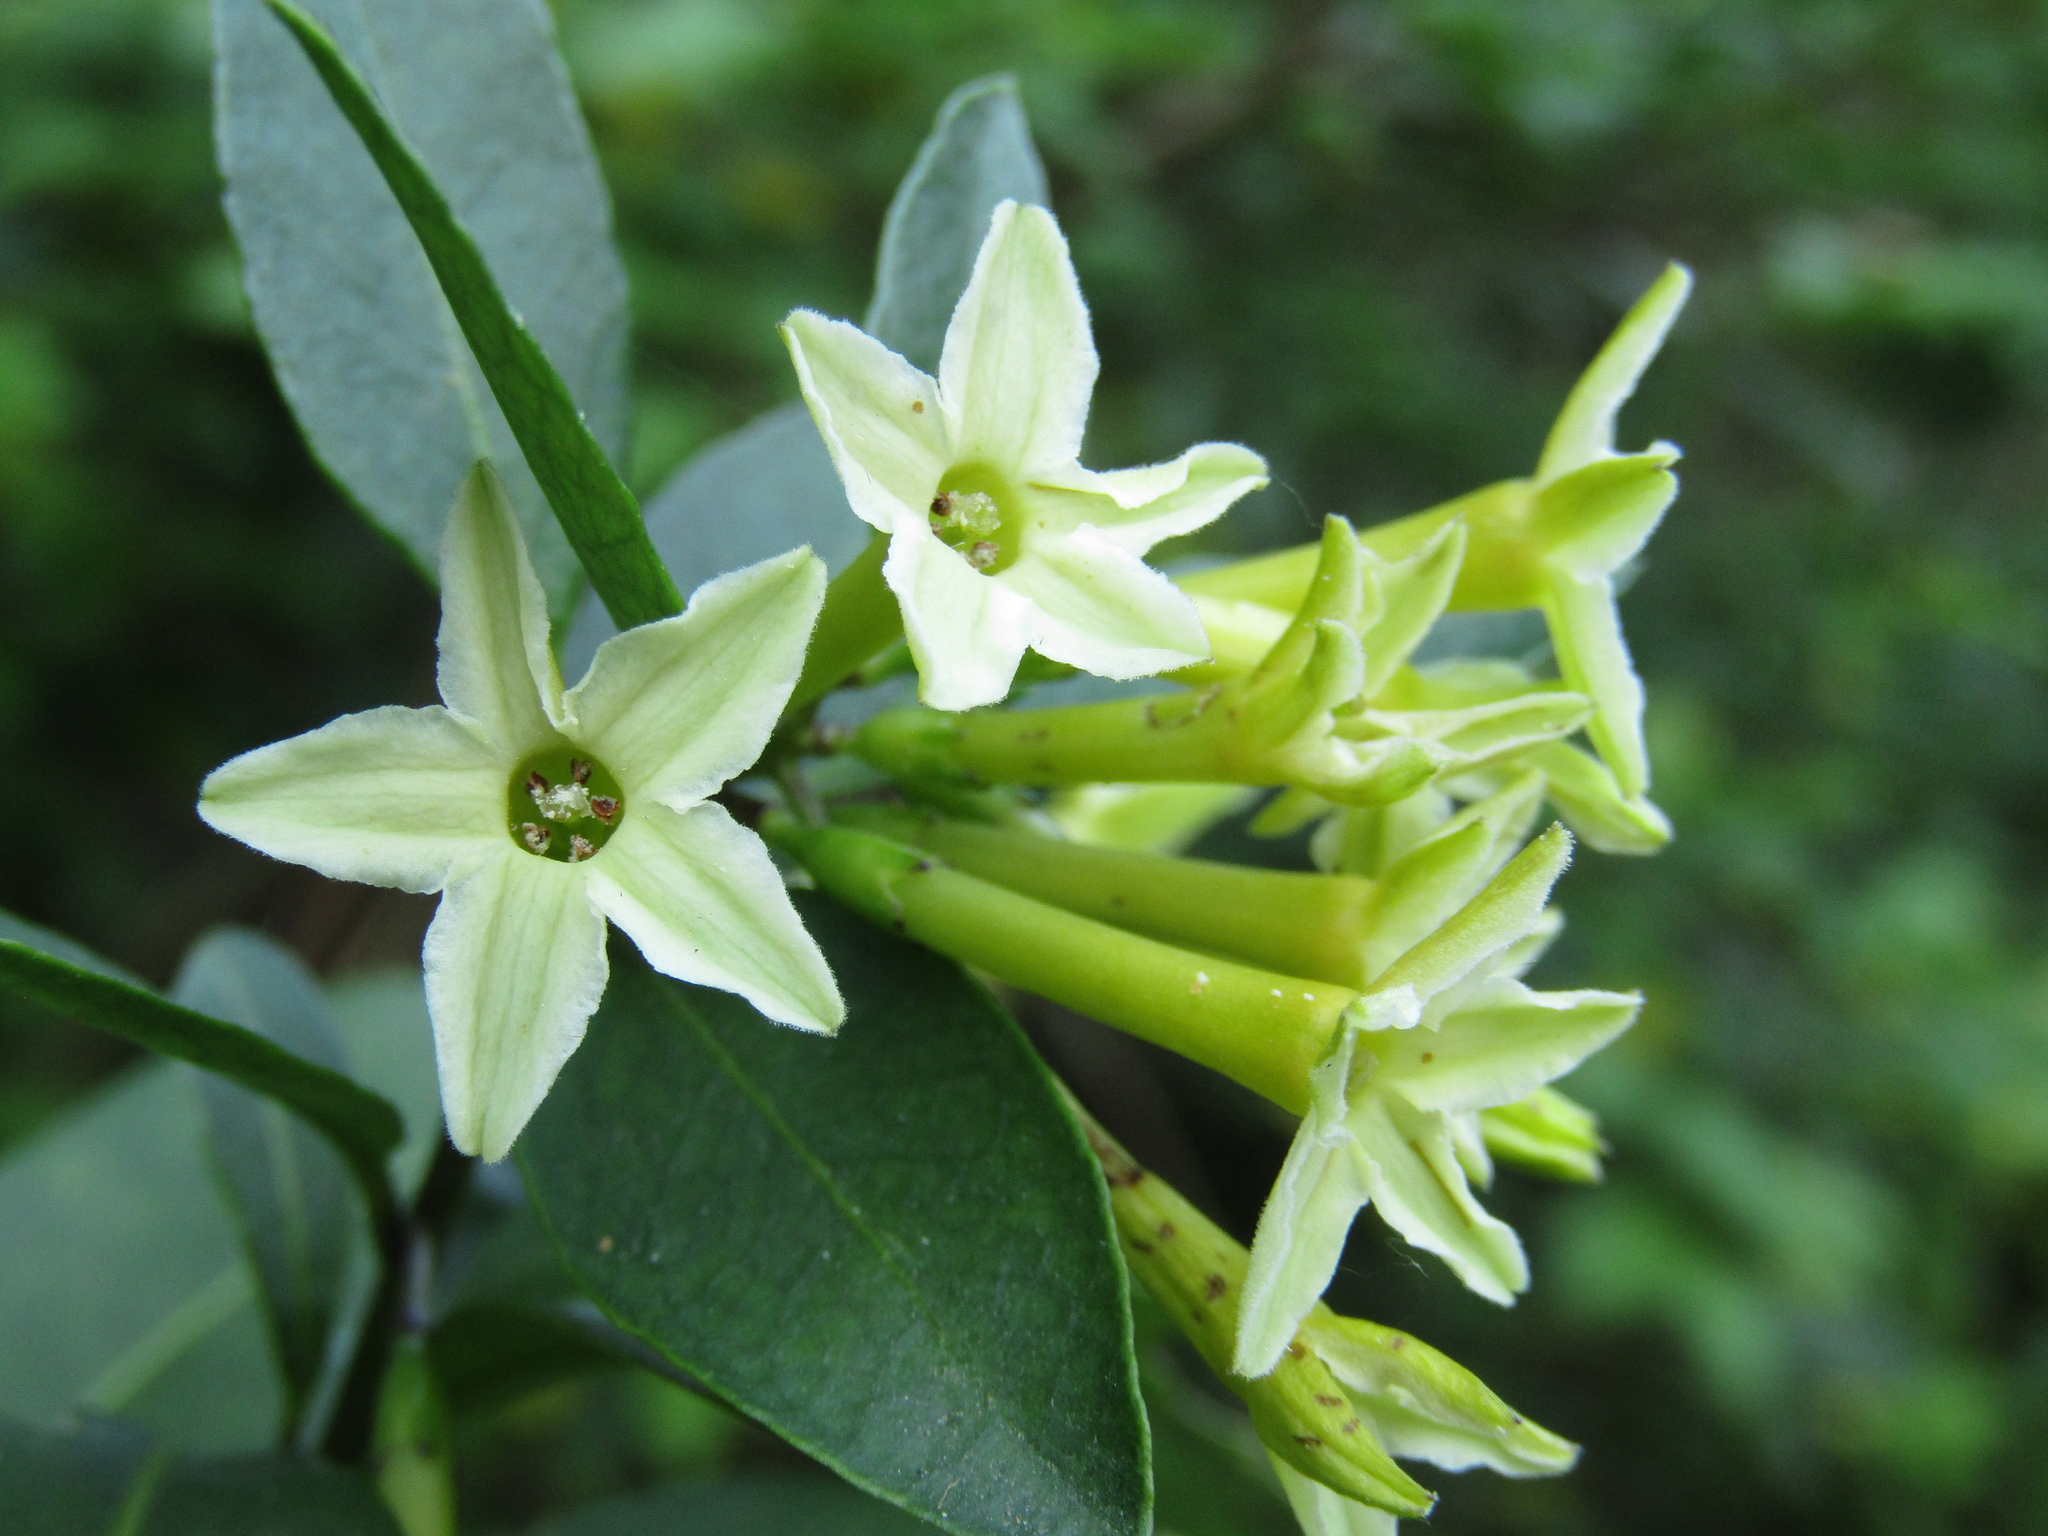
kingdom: Plantae
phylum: Tracheophyta
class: Magnoliopsida
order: Solanales
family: Solanaceae
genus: Cestrum
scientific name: Cestrum euanthes
